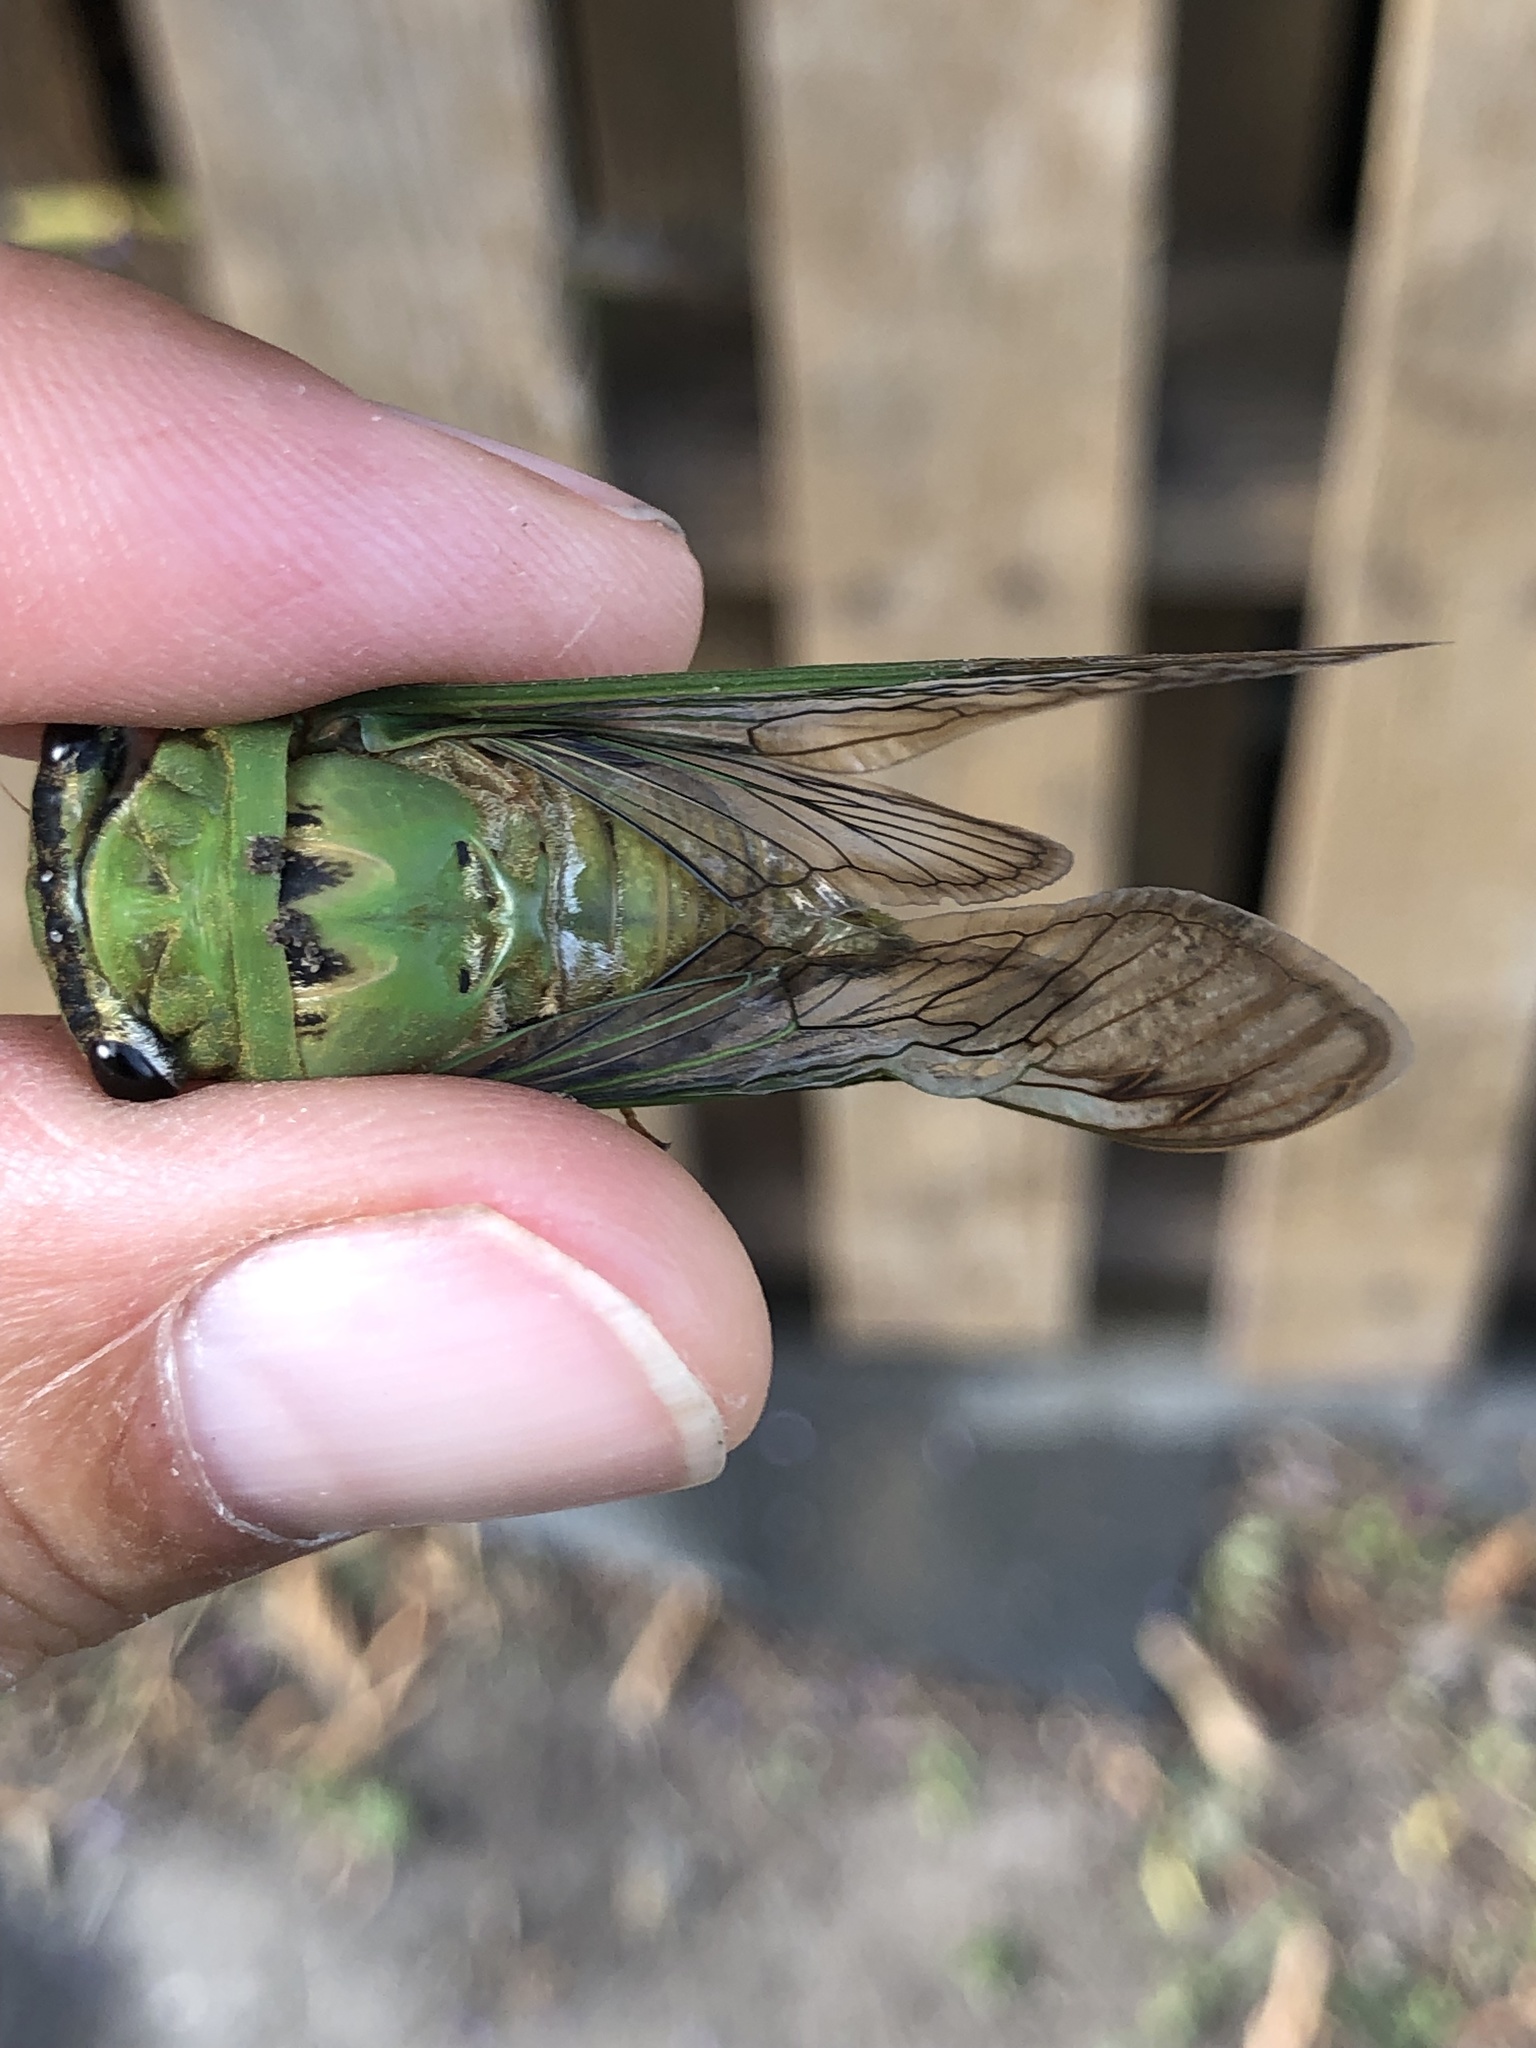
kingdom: Animalia
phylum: Arthropoda
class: Insecta
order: Hemiptera
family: Cicadidae
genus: Neotibicen
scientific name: Neotibicen superbus
